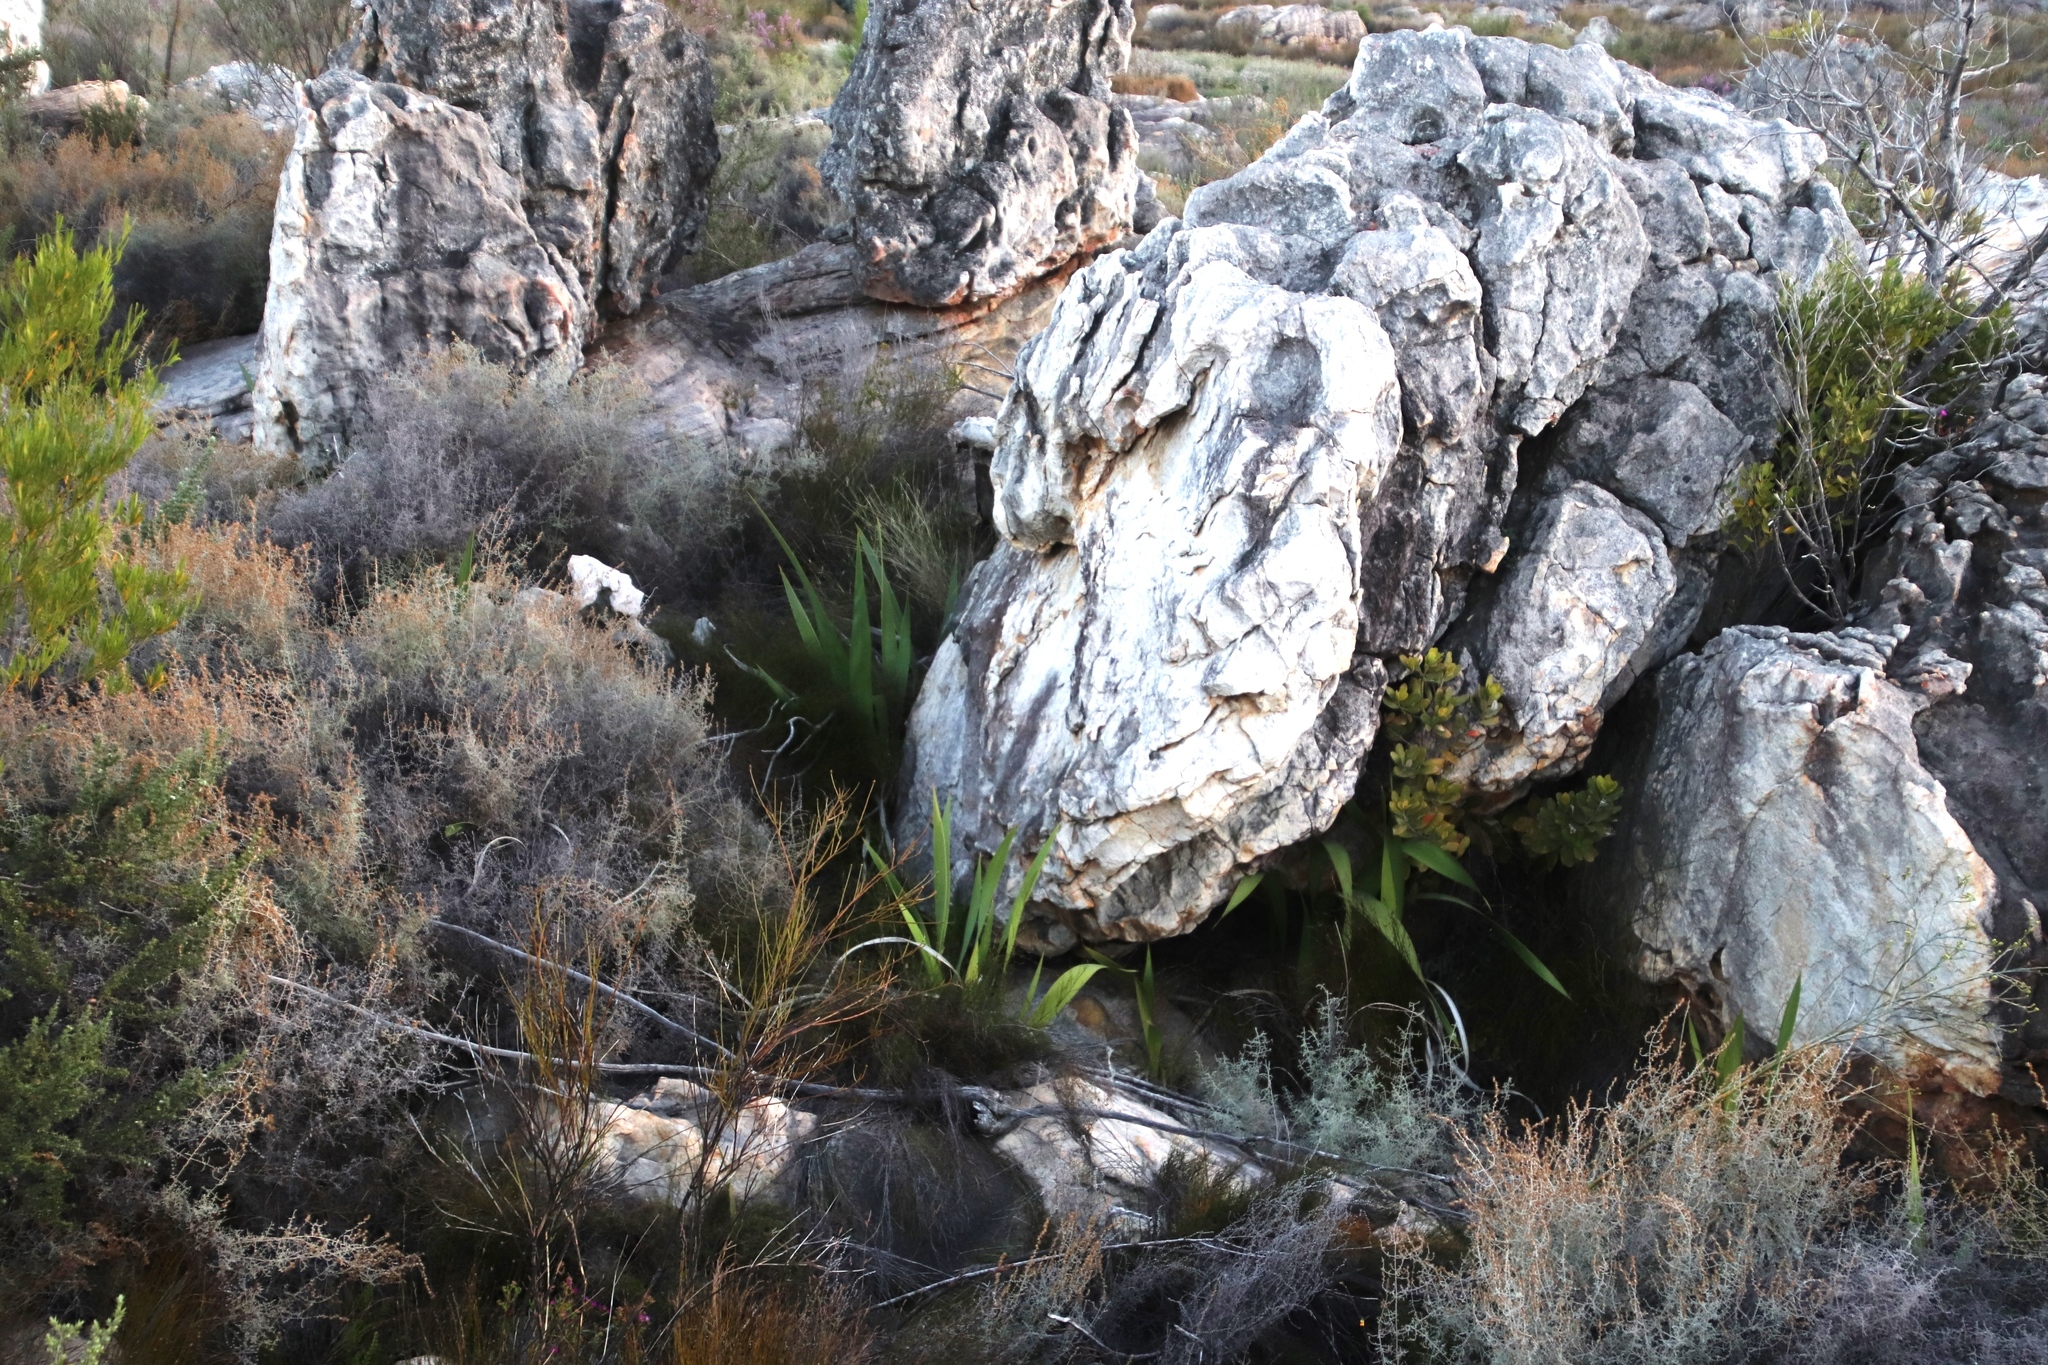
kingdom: Plantae
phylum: Tracheophyta
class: Liliopsida
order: Asparagales
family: Iridaceae
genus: Watsonia
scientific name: Watsonia vanderspuyae
